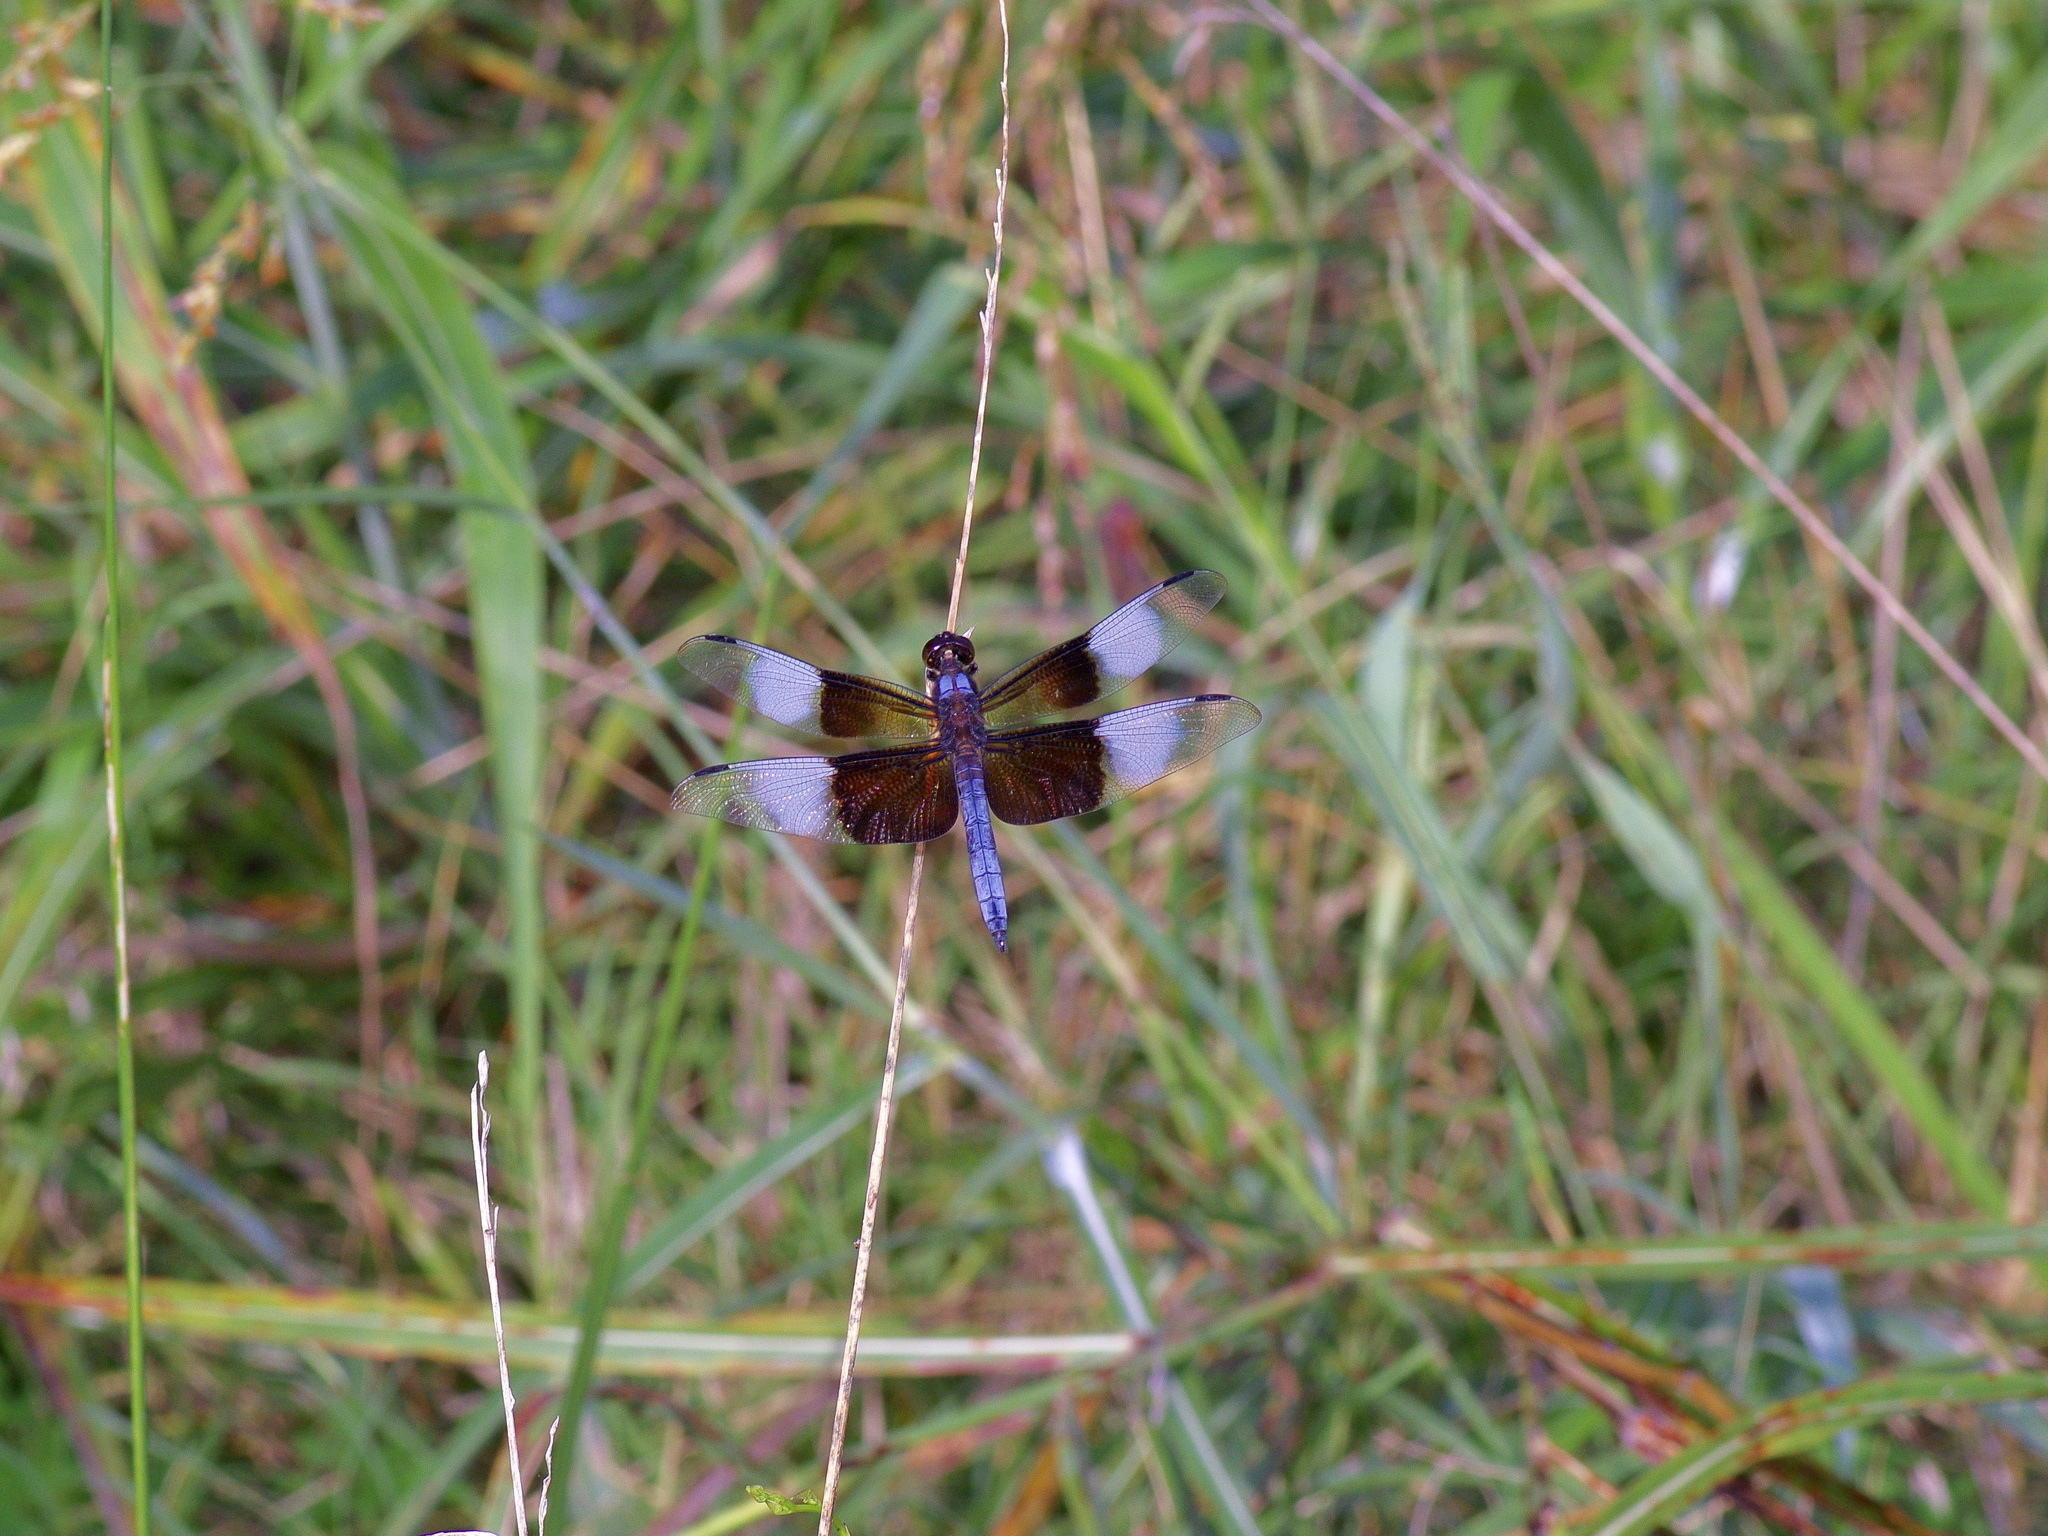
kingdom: Animalia
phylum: Arthropoda
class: Insecta
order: Odonata
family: Libellulidae
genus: Libellula
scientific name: Libellula luctuosa
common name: Widow skimmer
